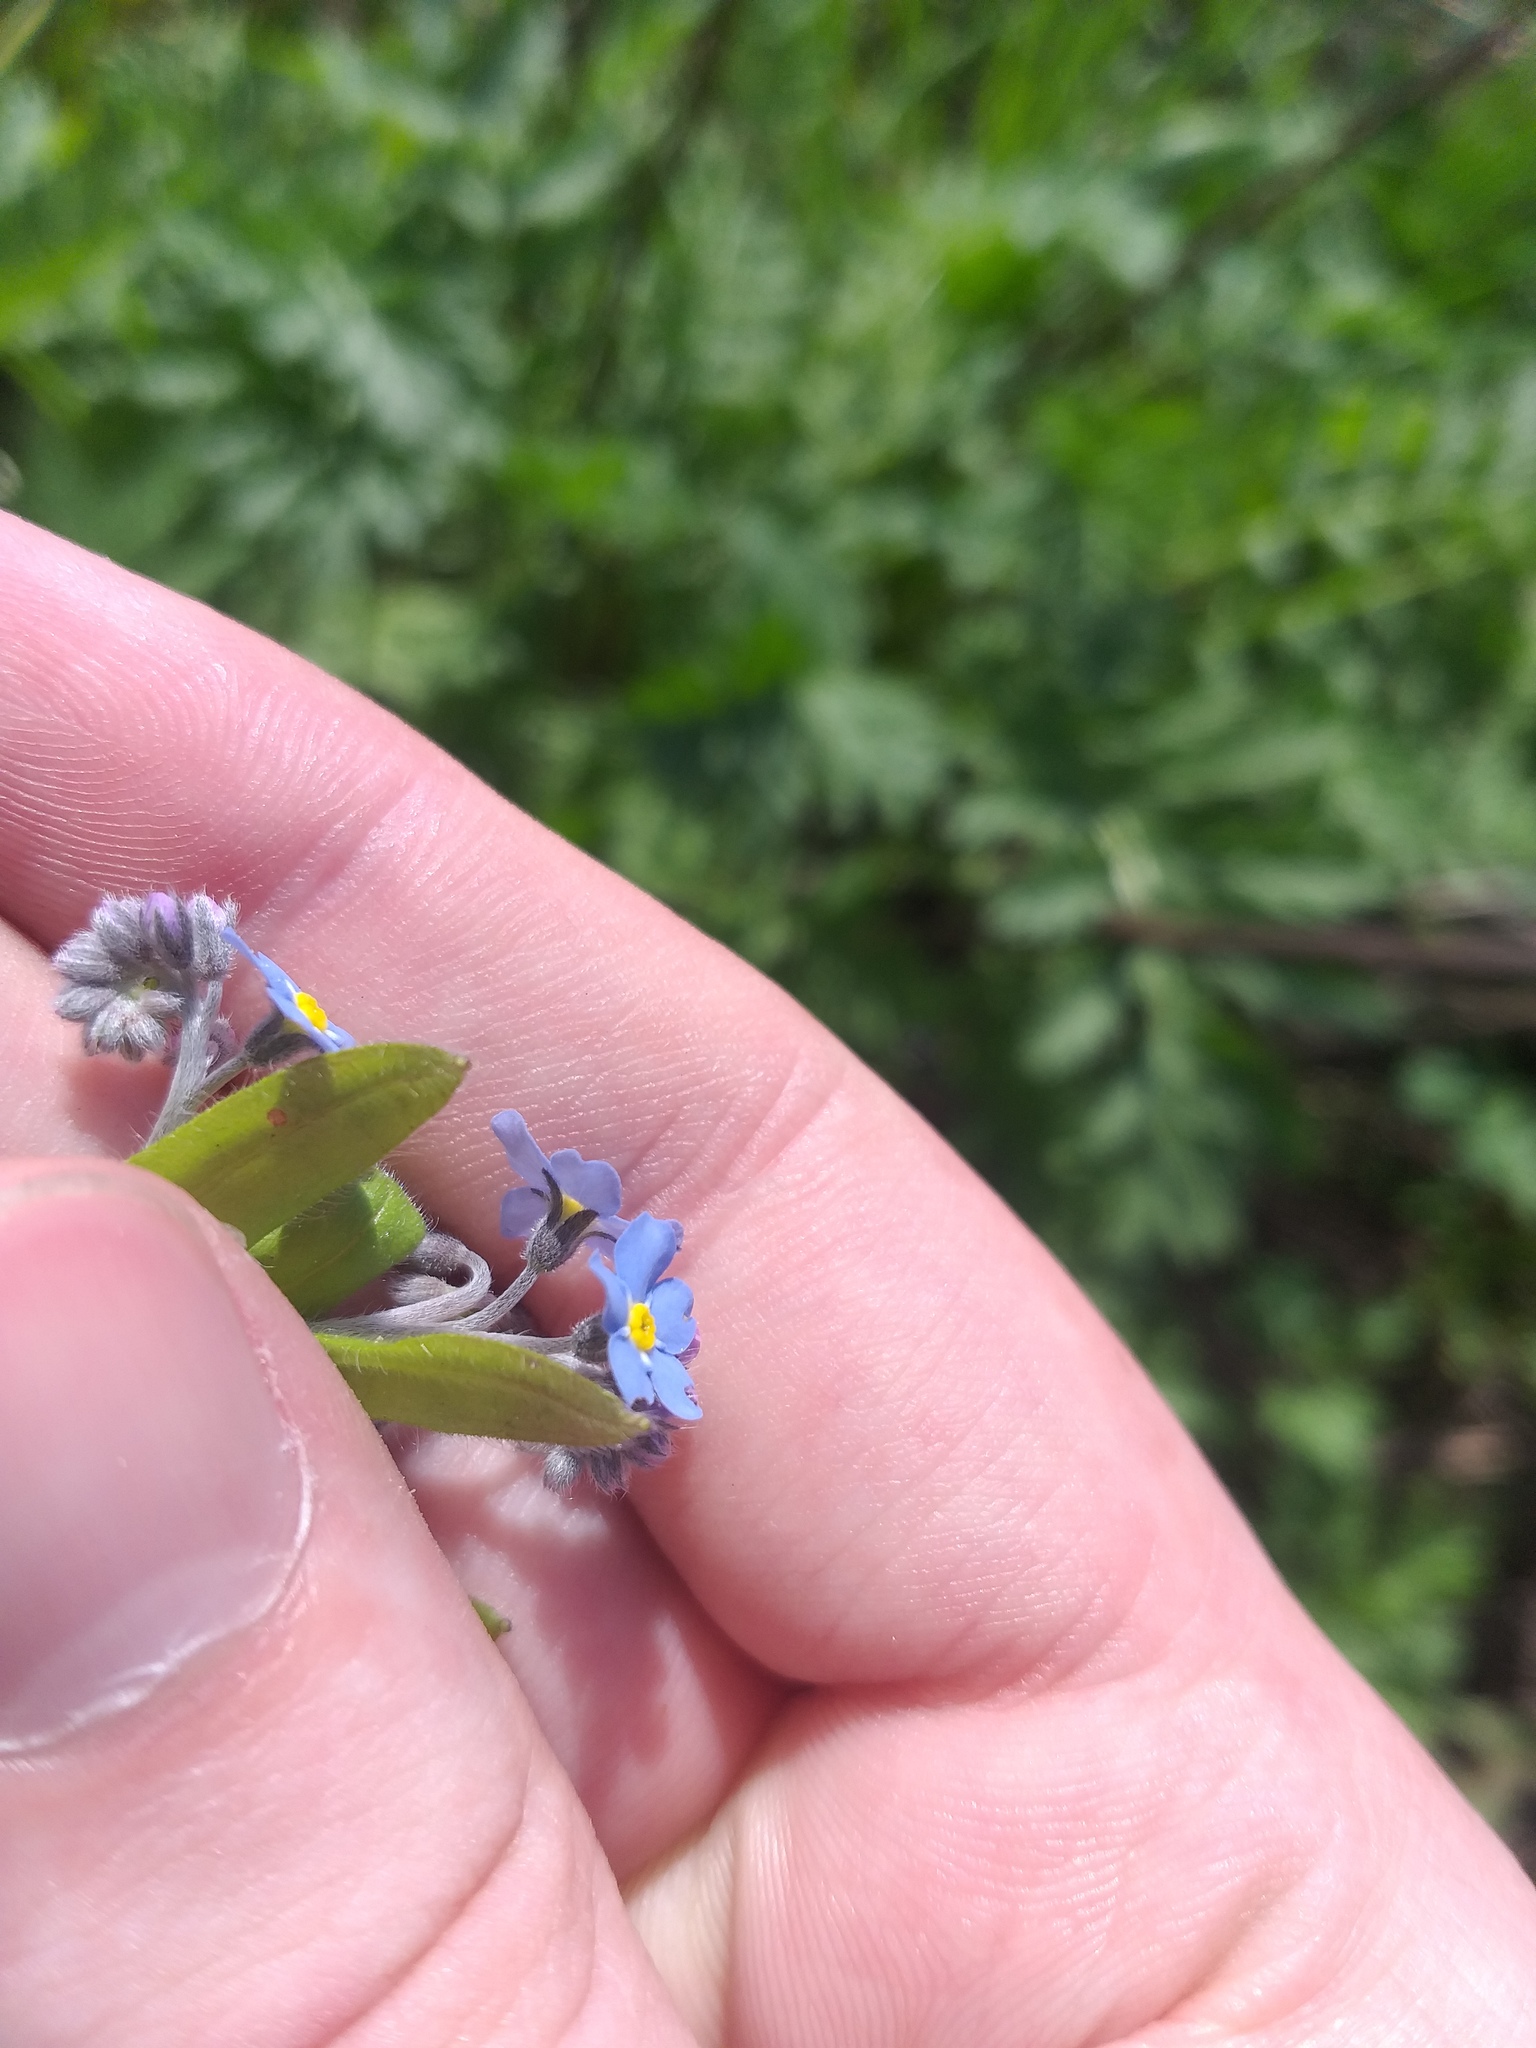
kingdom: Plantae
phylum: Tracheophyta
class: Magnoliopsida
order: Boraginales
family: Boraginaceae
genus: Myosotis
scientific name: Myosotis sylvatica
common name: Wood forget-me-not
